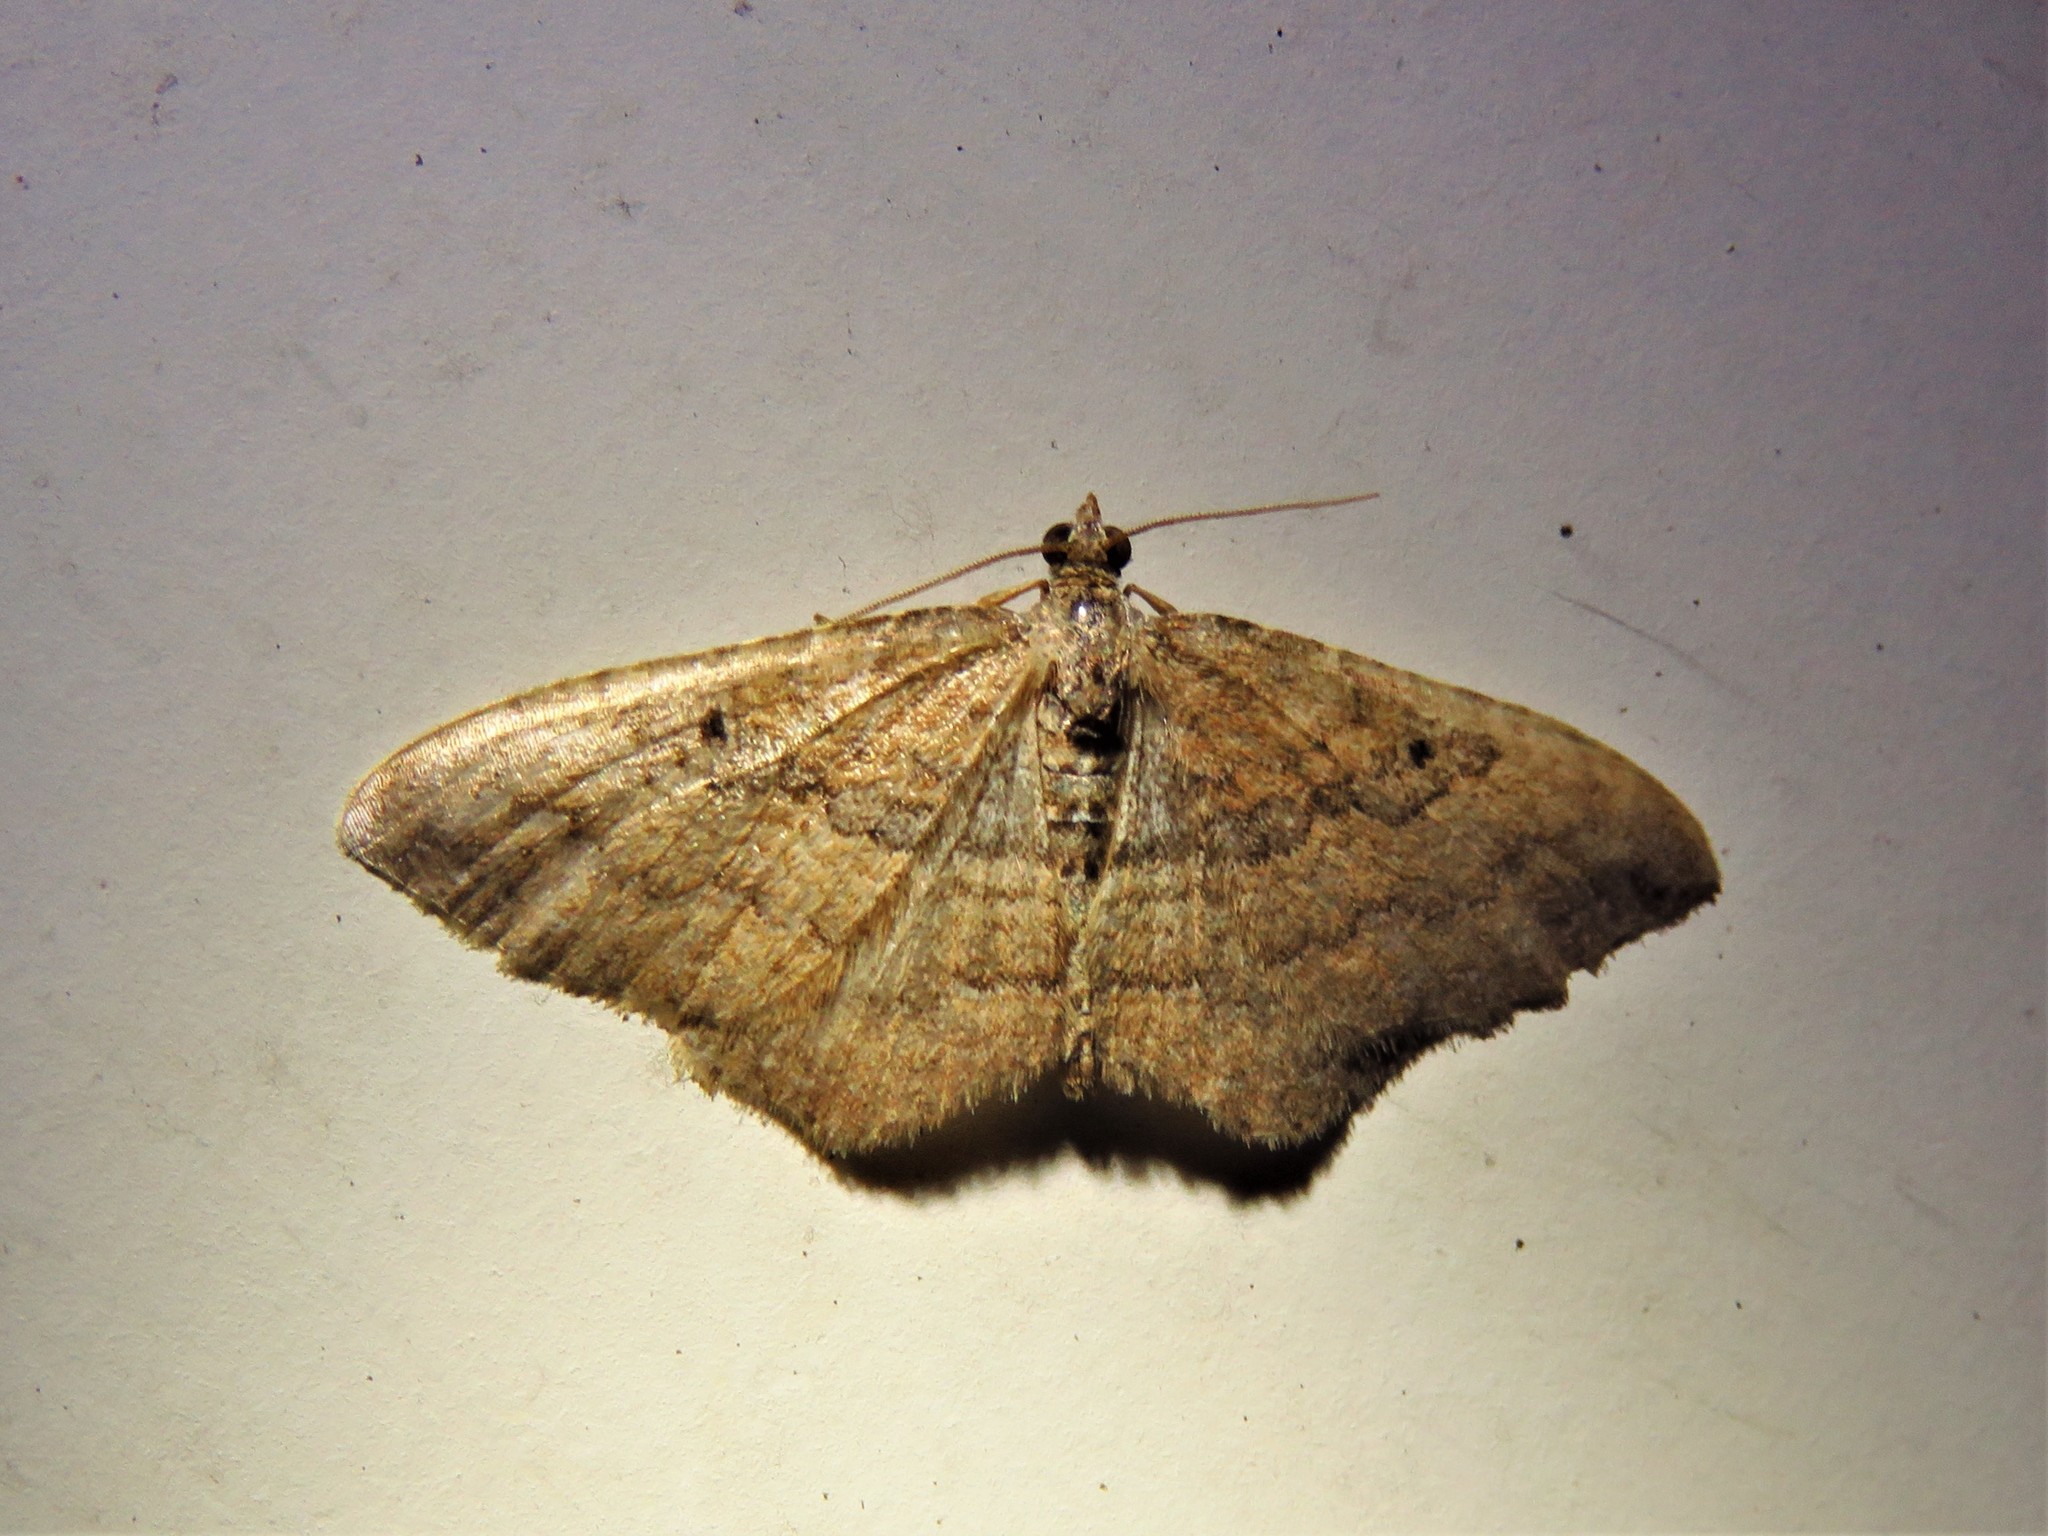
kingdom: Animalia
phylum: Arthropoda
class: Insecta
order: Lepidoptera
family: Geometridae
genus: Orthonama
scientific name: Orthonama obstipata
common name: The gem
